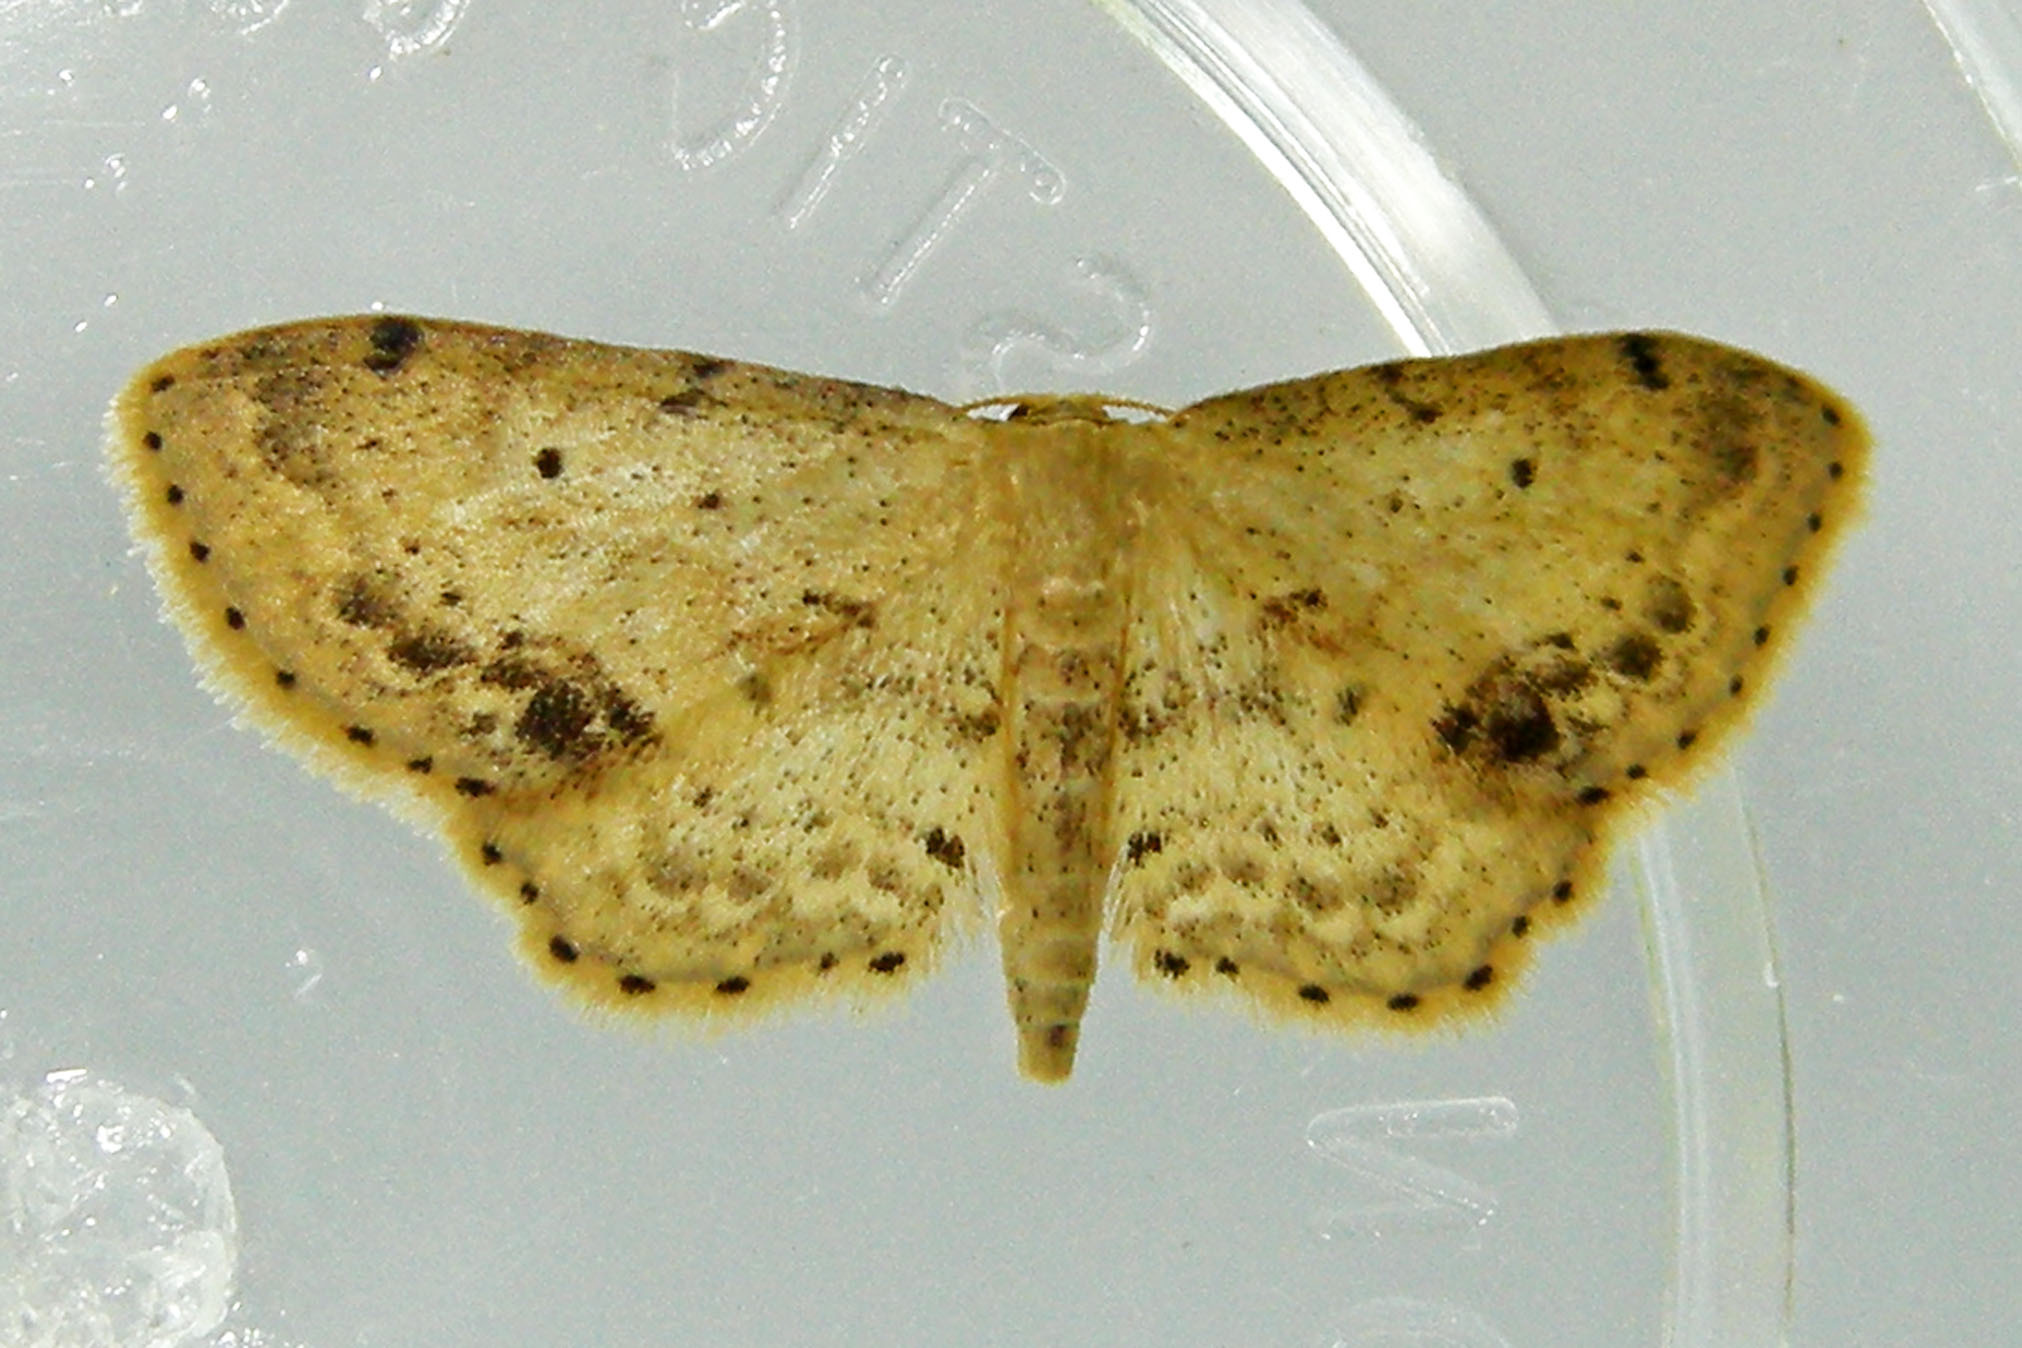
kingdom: Animalia
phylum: Arthropoda
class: Insecta
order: Lepidoptera
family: Geometridae
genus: Idaea
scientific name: Idaea dimidiata
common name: Single-dotted wave
